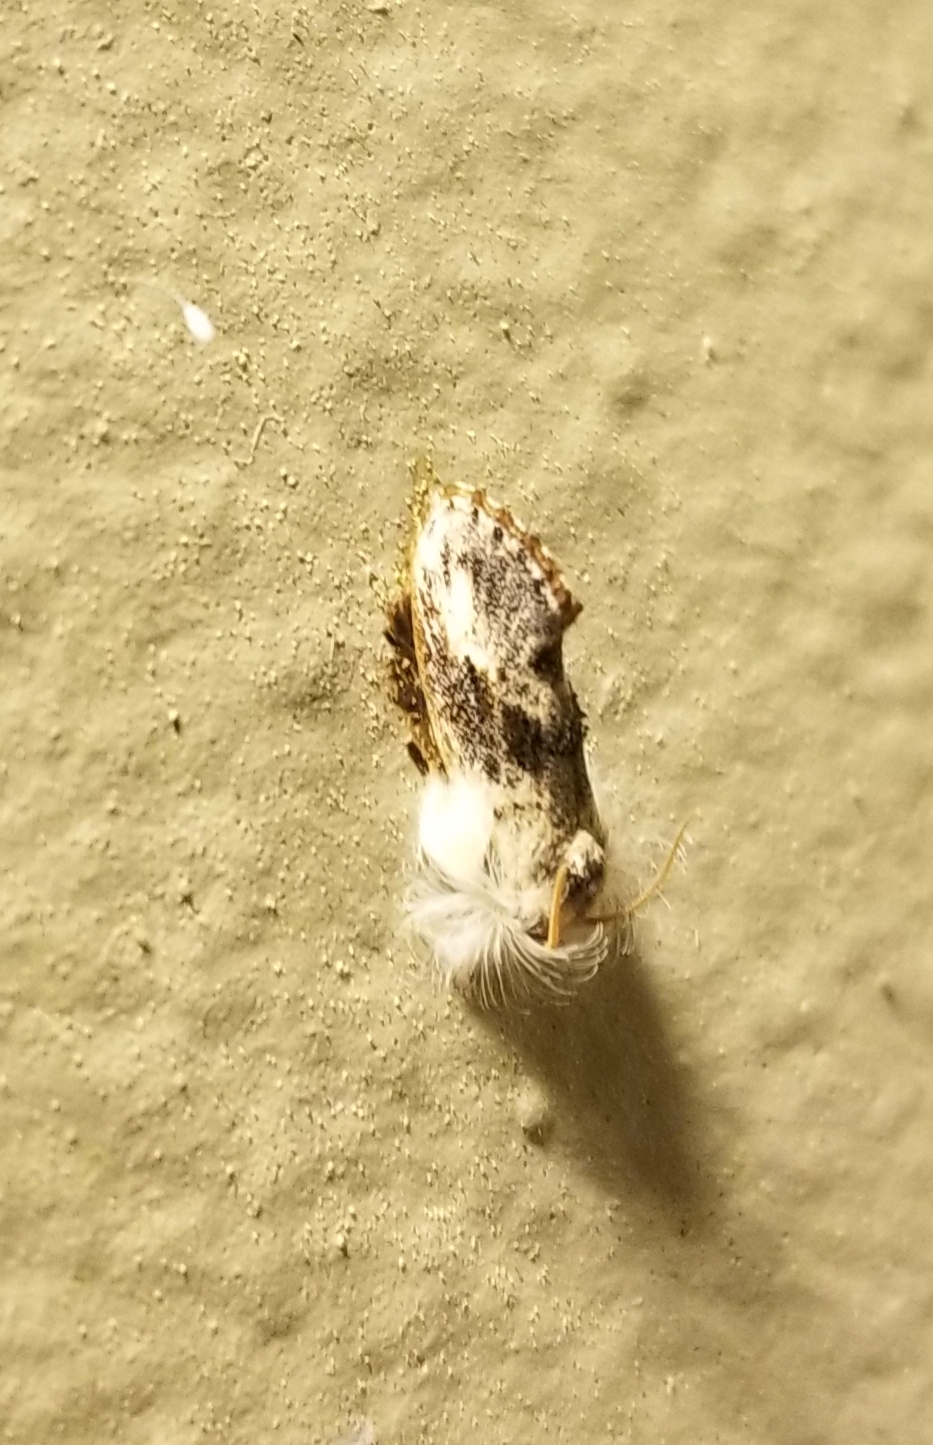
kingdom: Animalia
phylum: Arthropoda
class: Insecta
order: Lepidoptera
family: Tineidae
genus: Acrolophus
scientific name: Acrolophus mycetophagus
